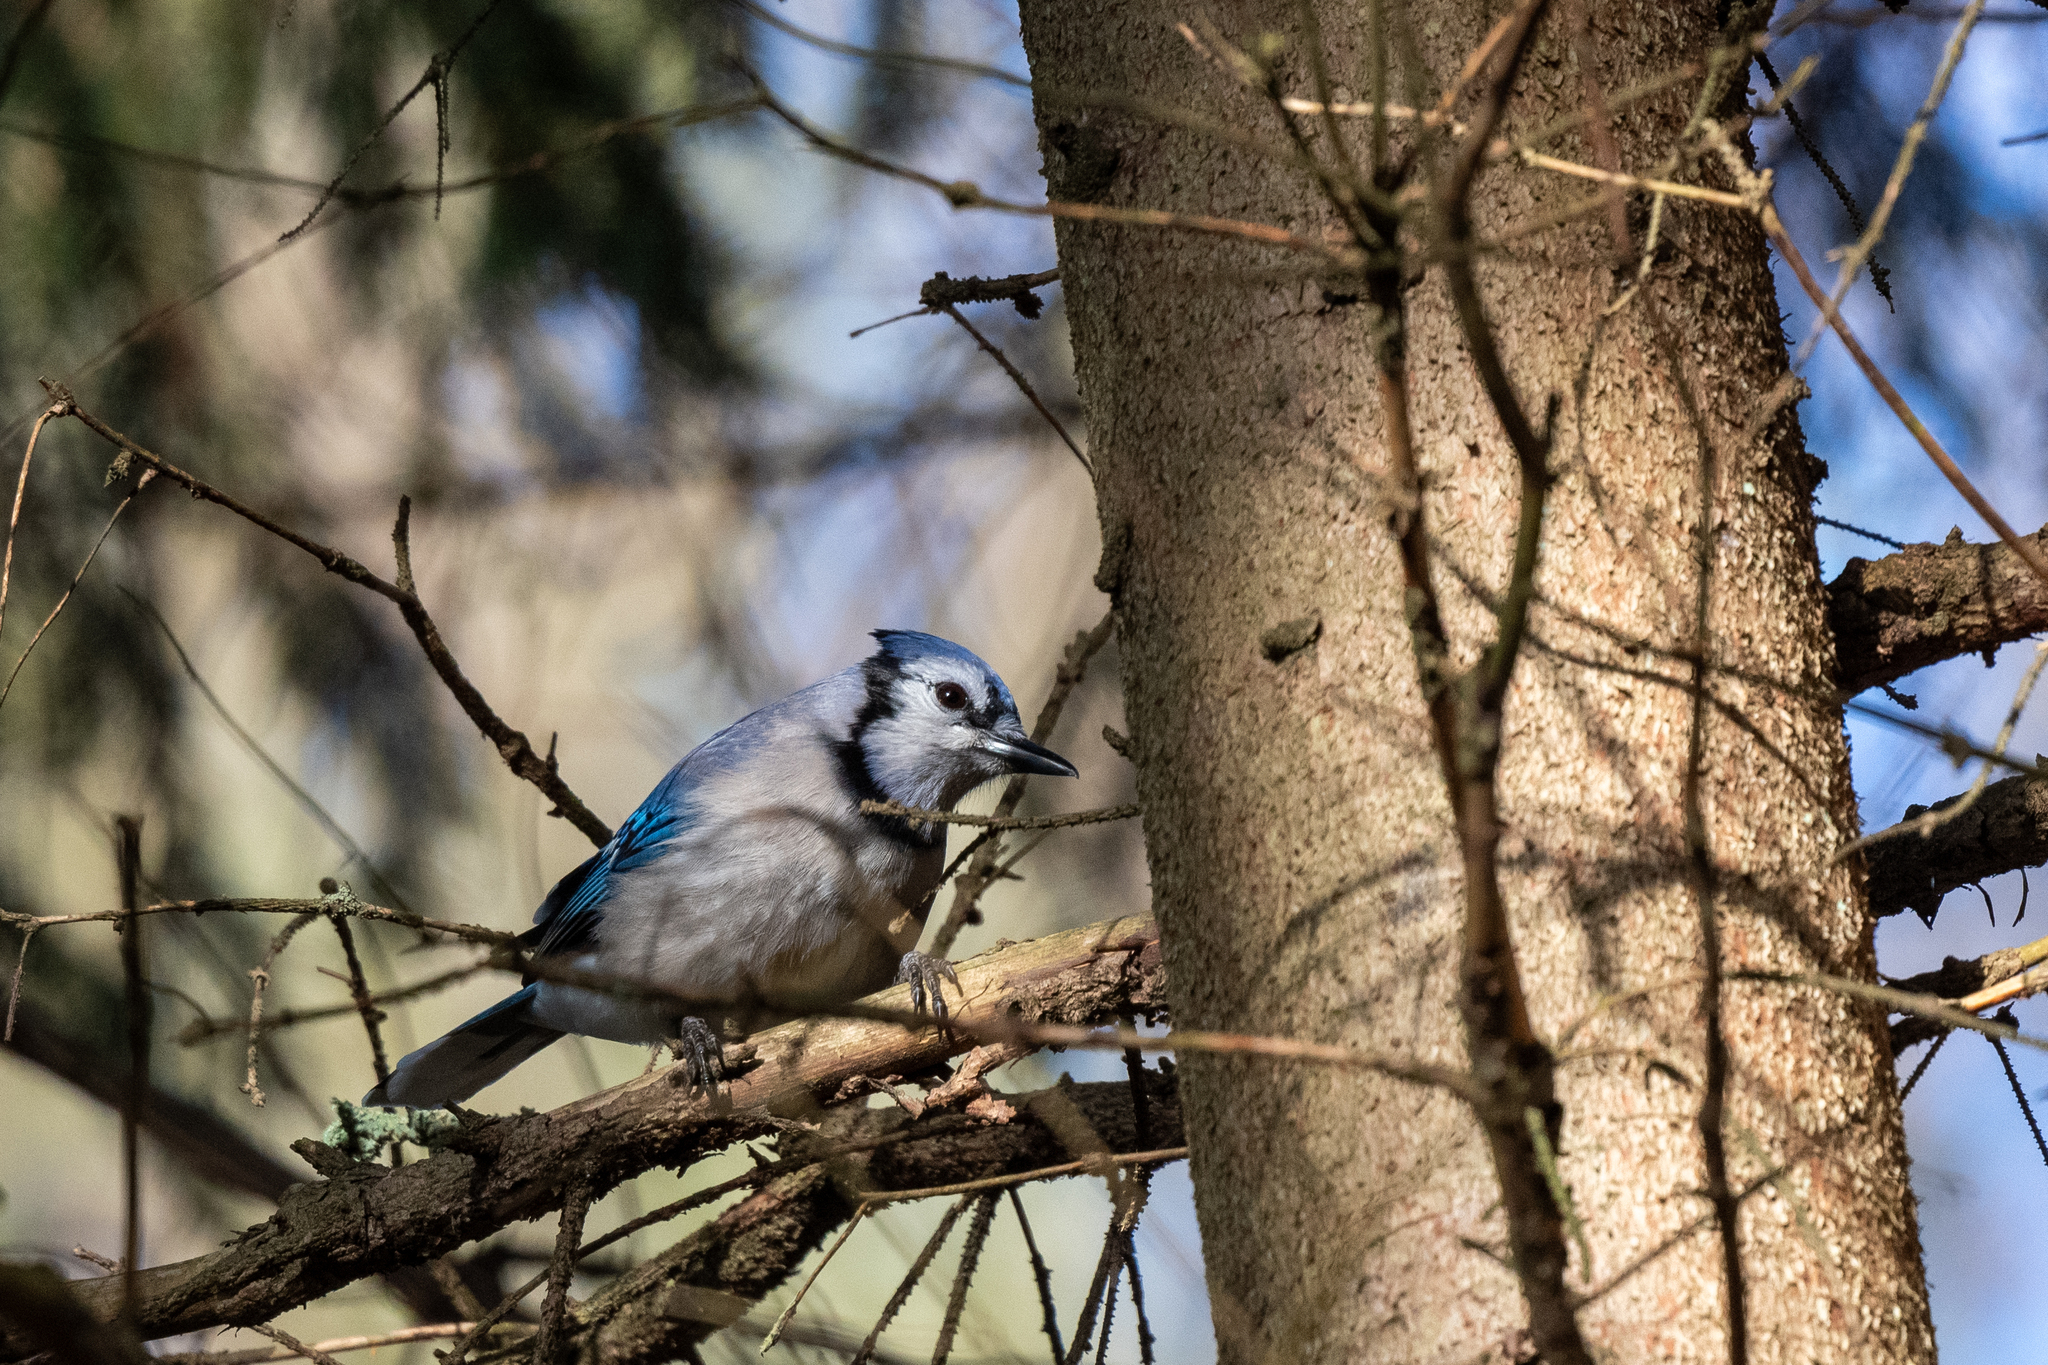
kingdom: Animalia
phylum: Chordata
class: Aves
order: Passeriformes
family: Corvidae
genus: Cyanocitta
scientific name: Cyanocitta cristata
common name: Blue jay
